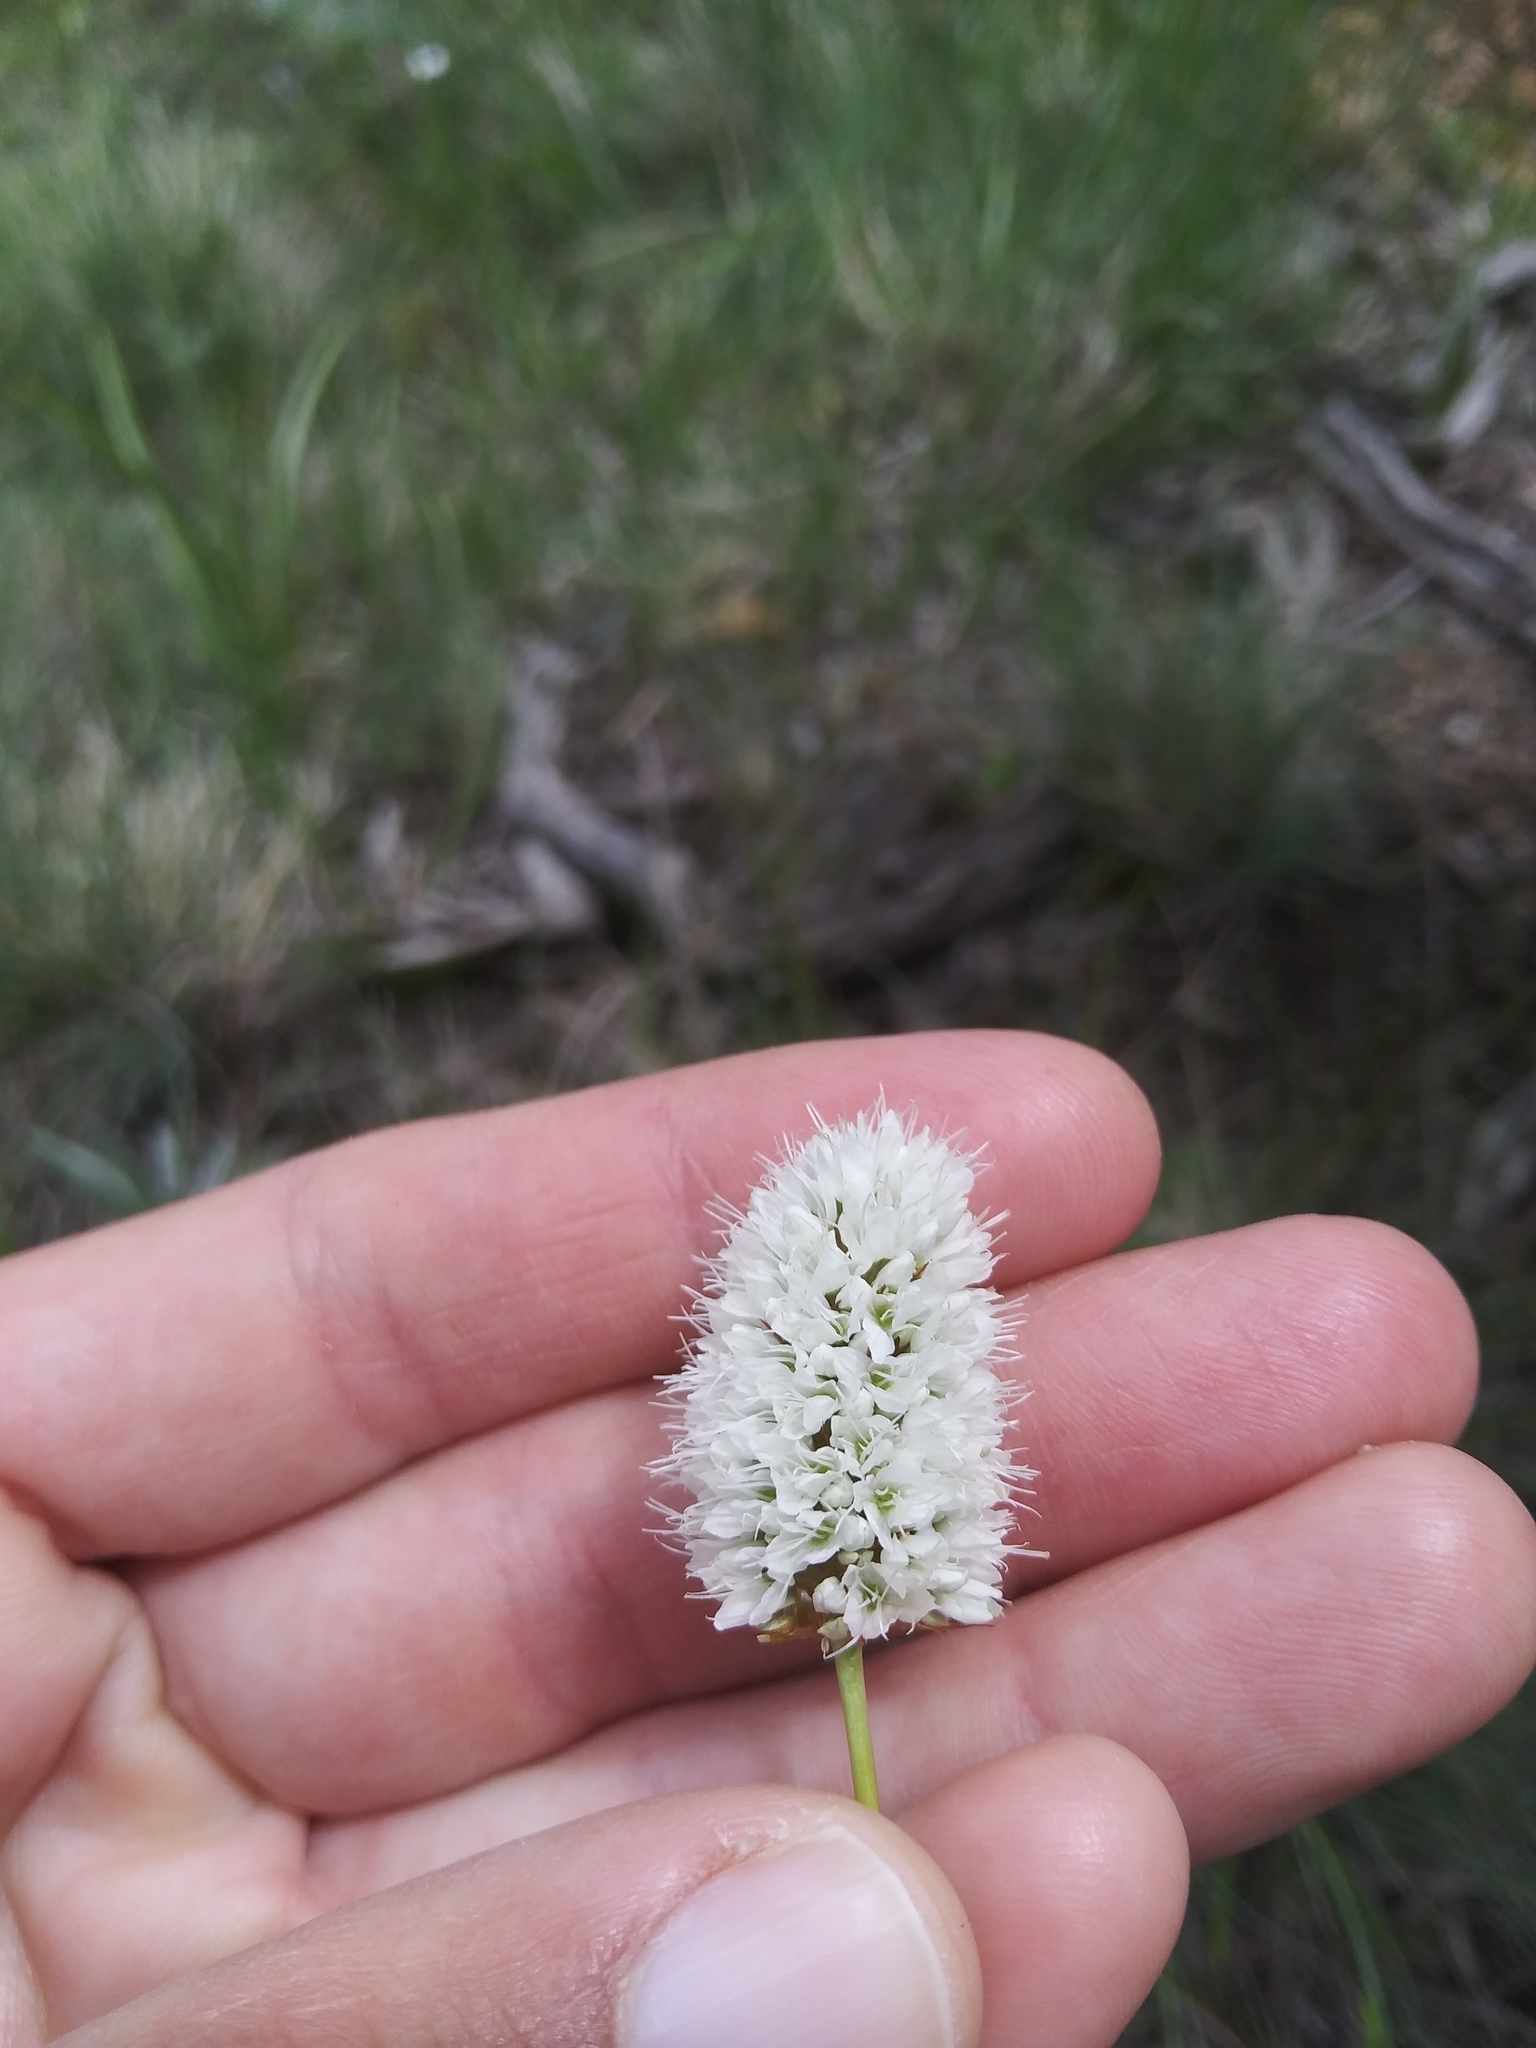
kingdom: Plantae
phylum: Tracheophyta
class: Magnoliopsida
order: Caryophyllales
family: Polygonaceae
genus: Bistorta
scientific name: Bistorta bistortoides
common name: American bistort
